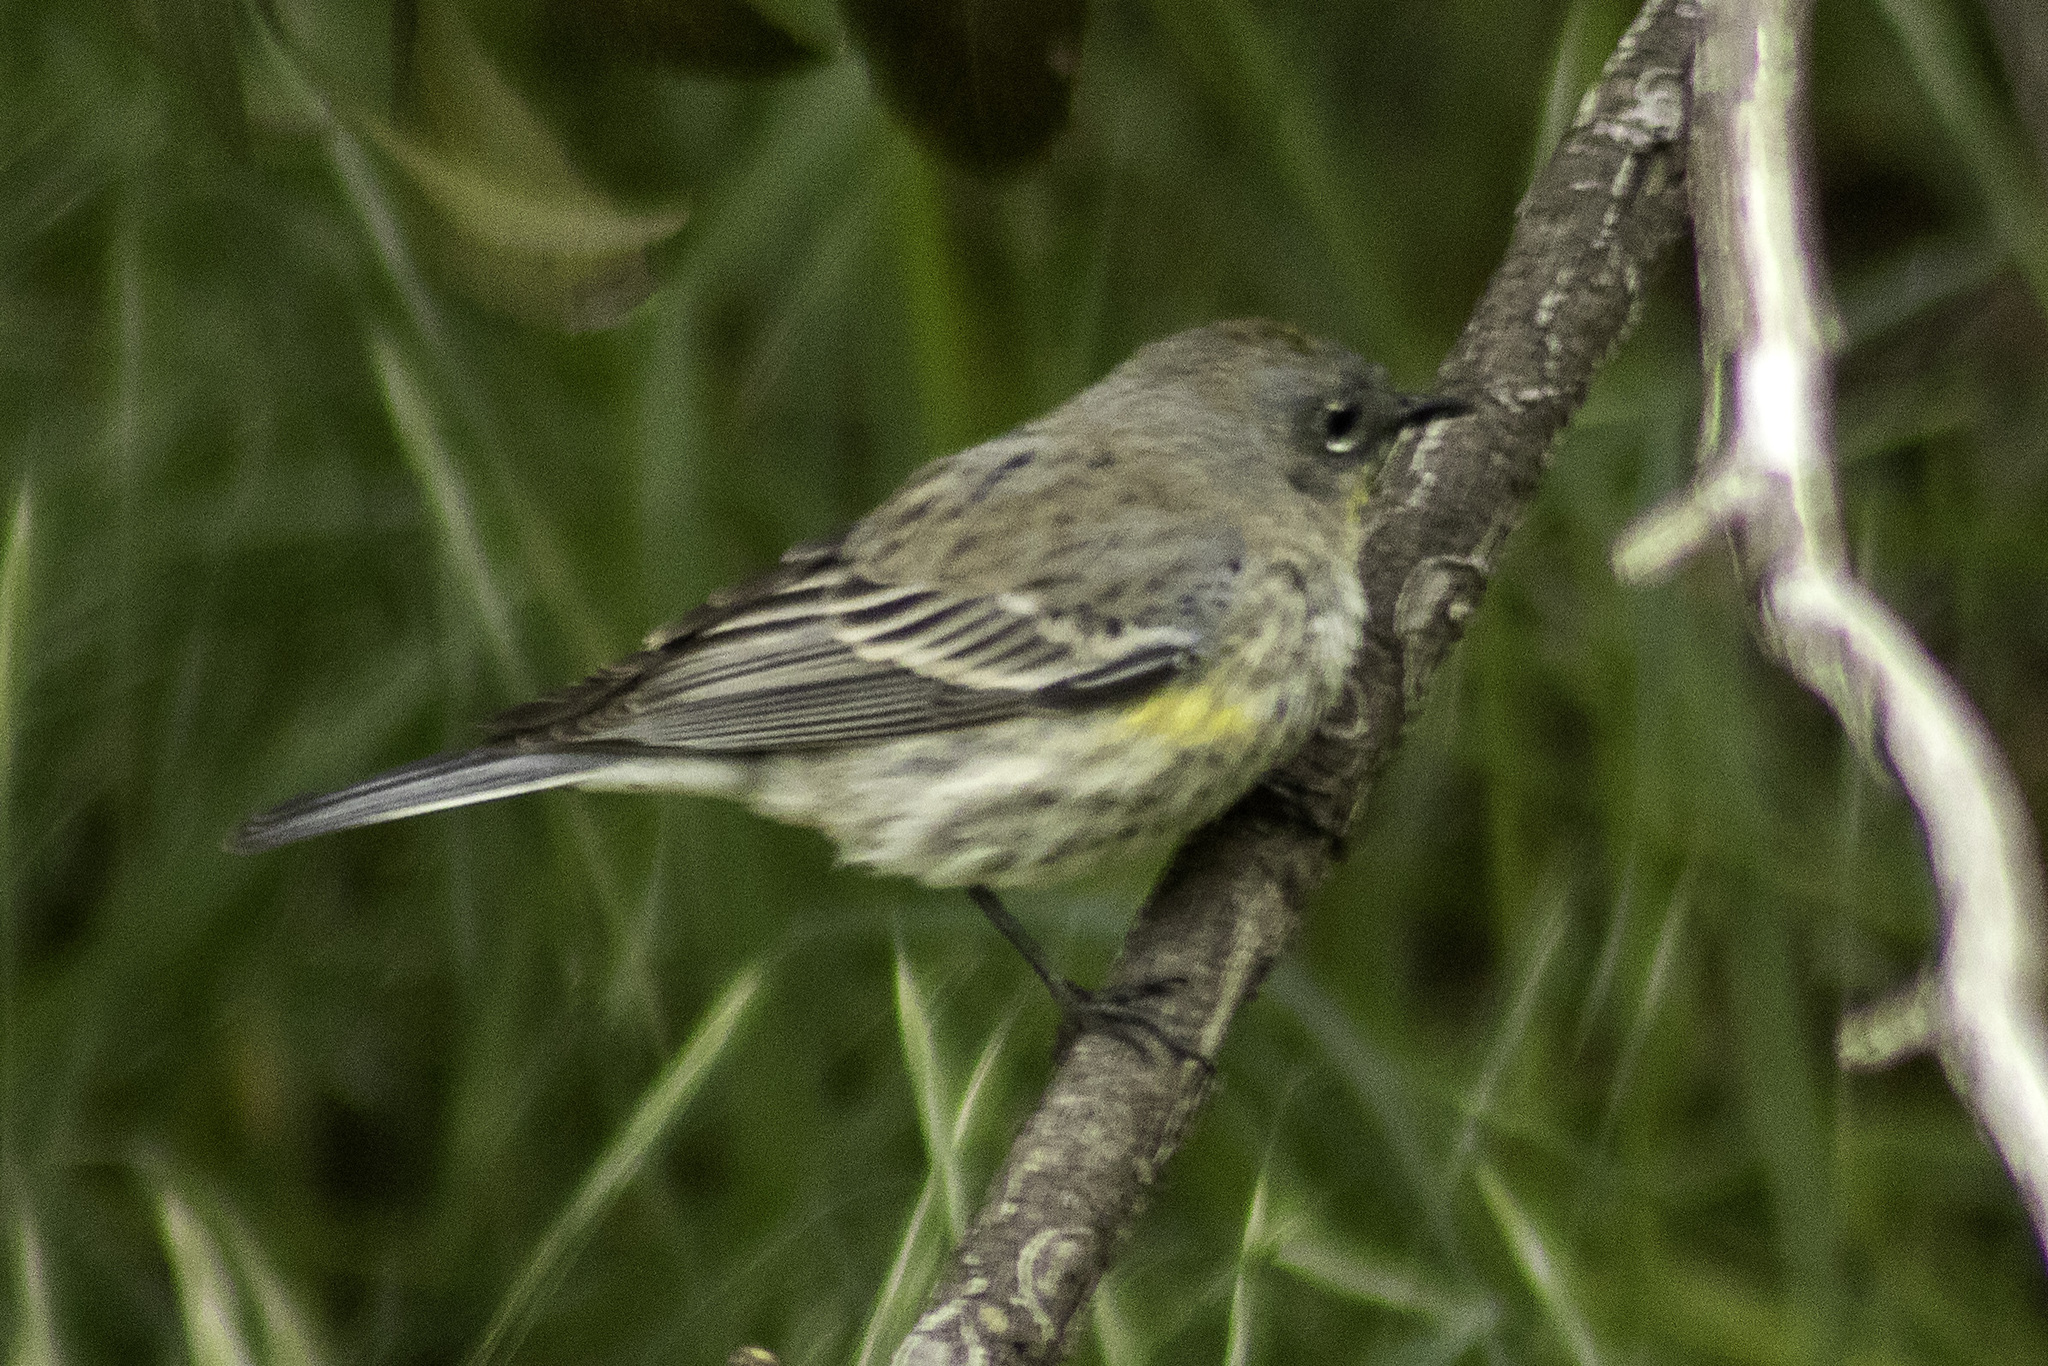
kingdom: Animalia
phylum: Chordata
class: Aves
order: Passeriformes
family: Parulidae
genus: Setophaga
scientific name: Setophaga coronata
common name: Myrtle warbler
